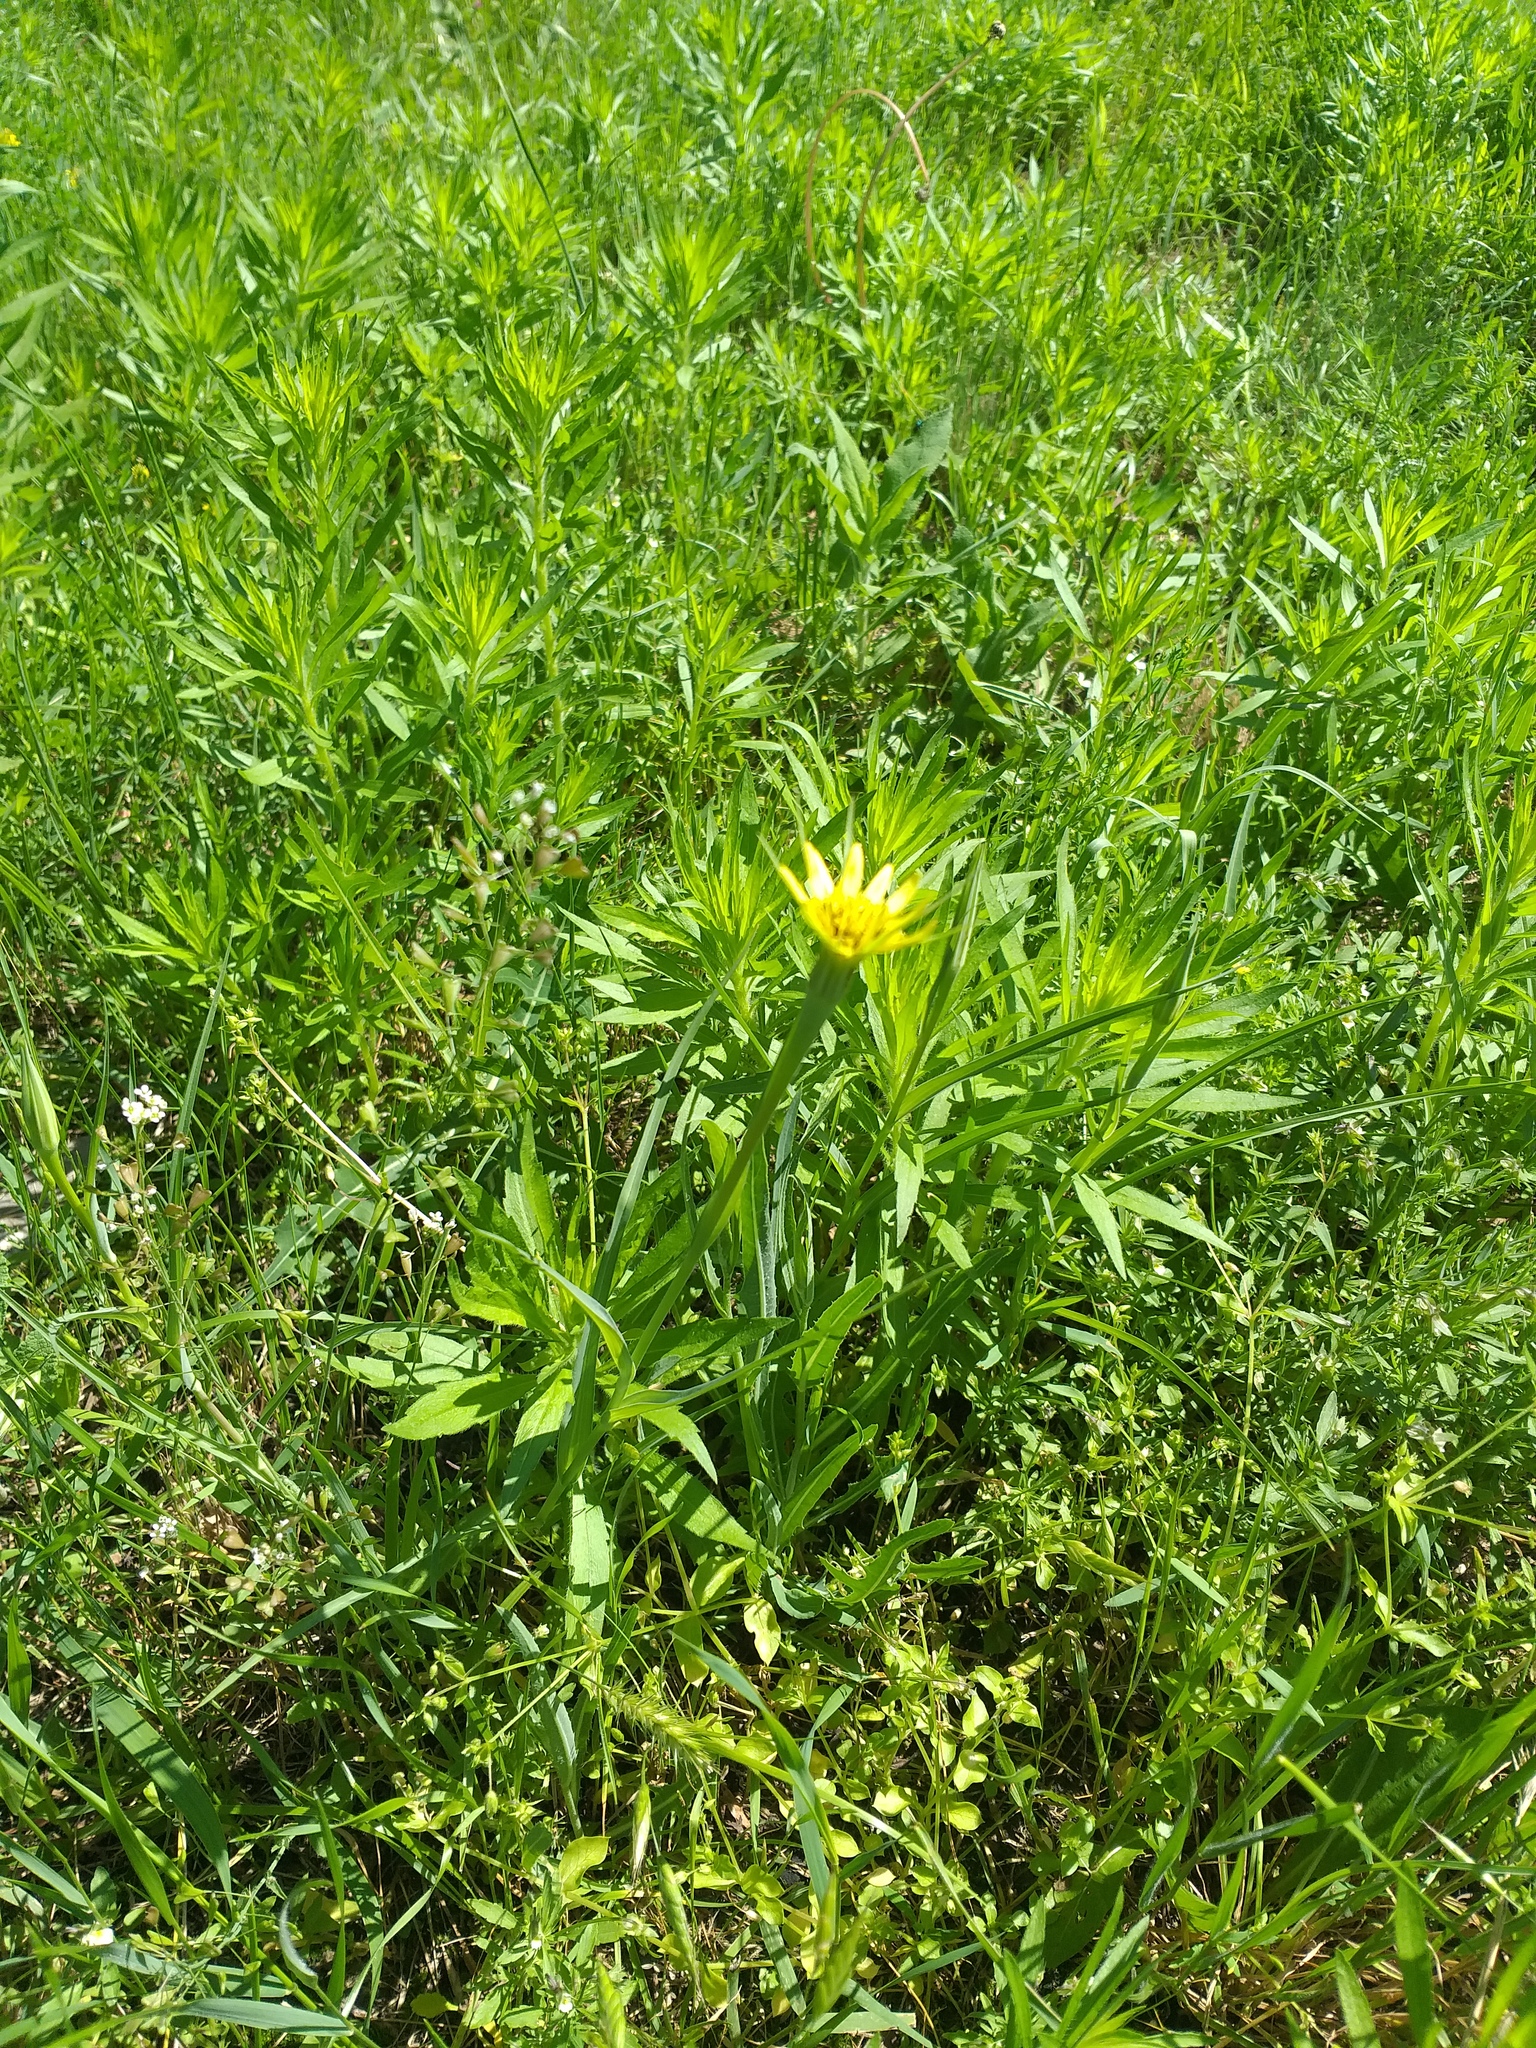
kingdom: Plantae
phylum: Tracheophyta
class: Magnoliopsida
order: Asterales
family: Asteraceae
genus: Tragopogon
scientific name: Tragopogon dubius
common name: Yellow salsify
